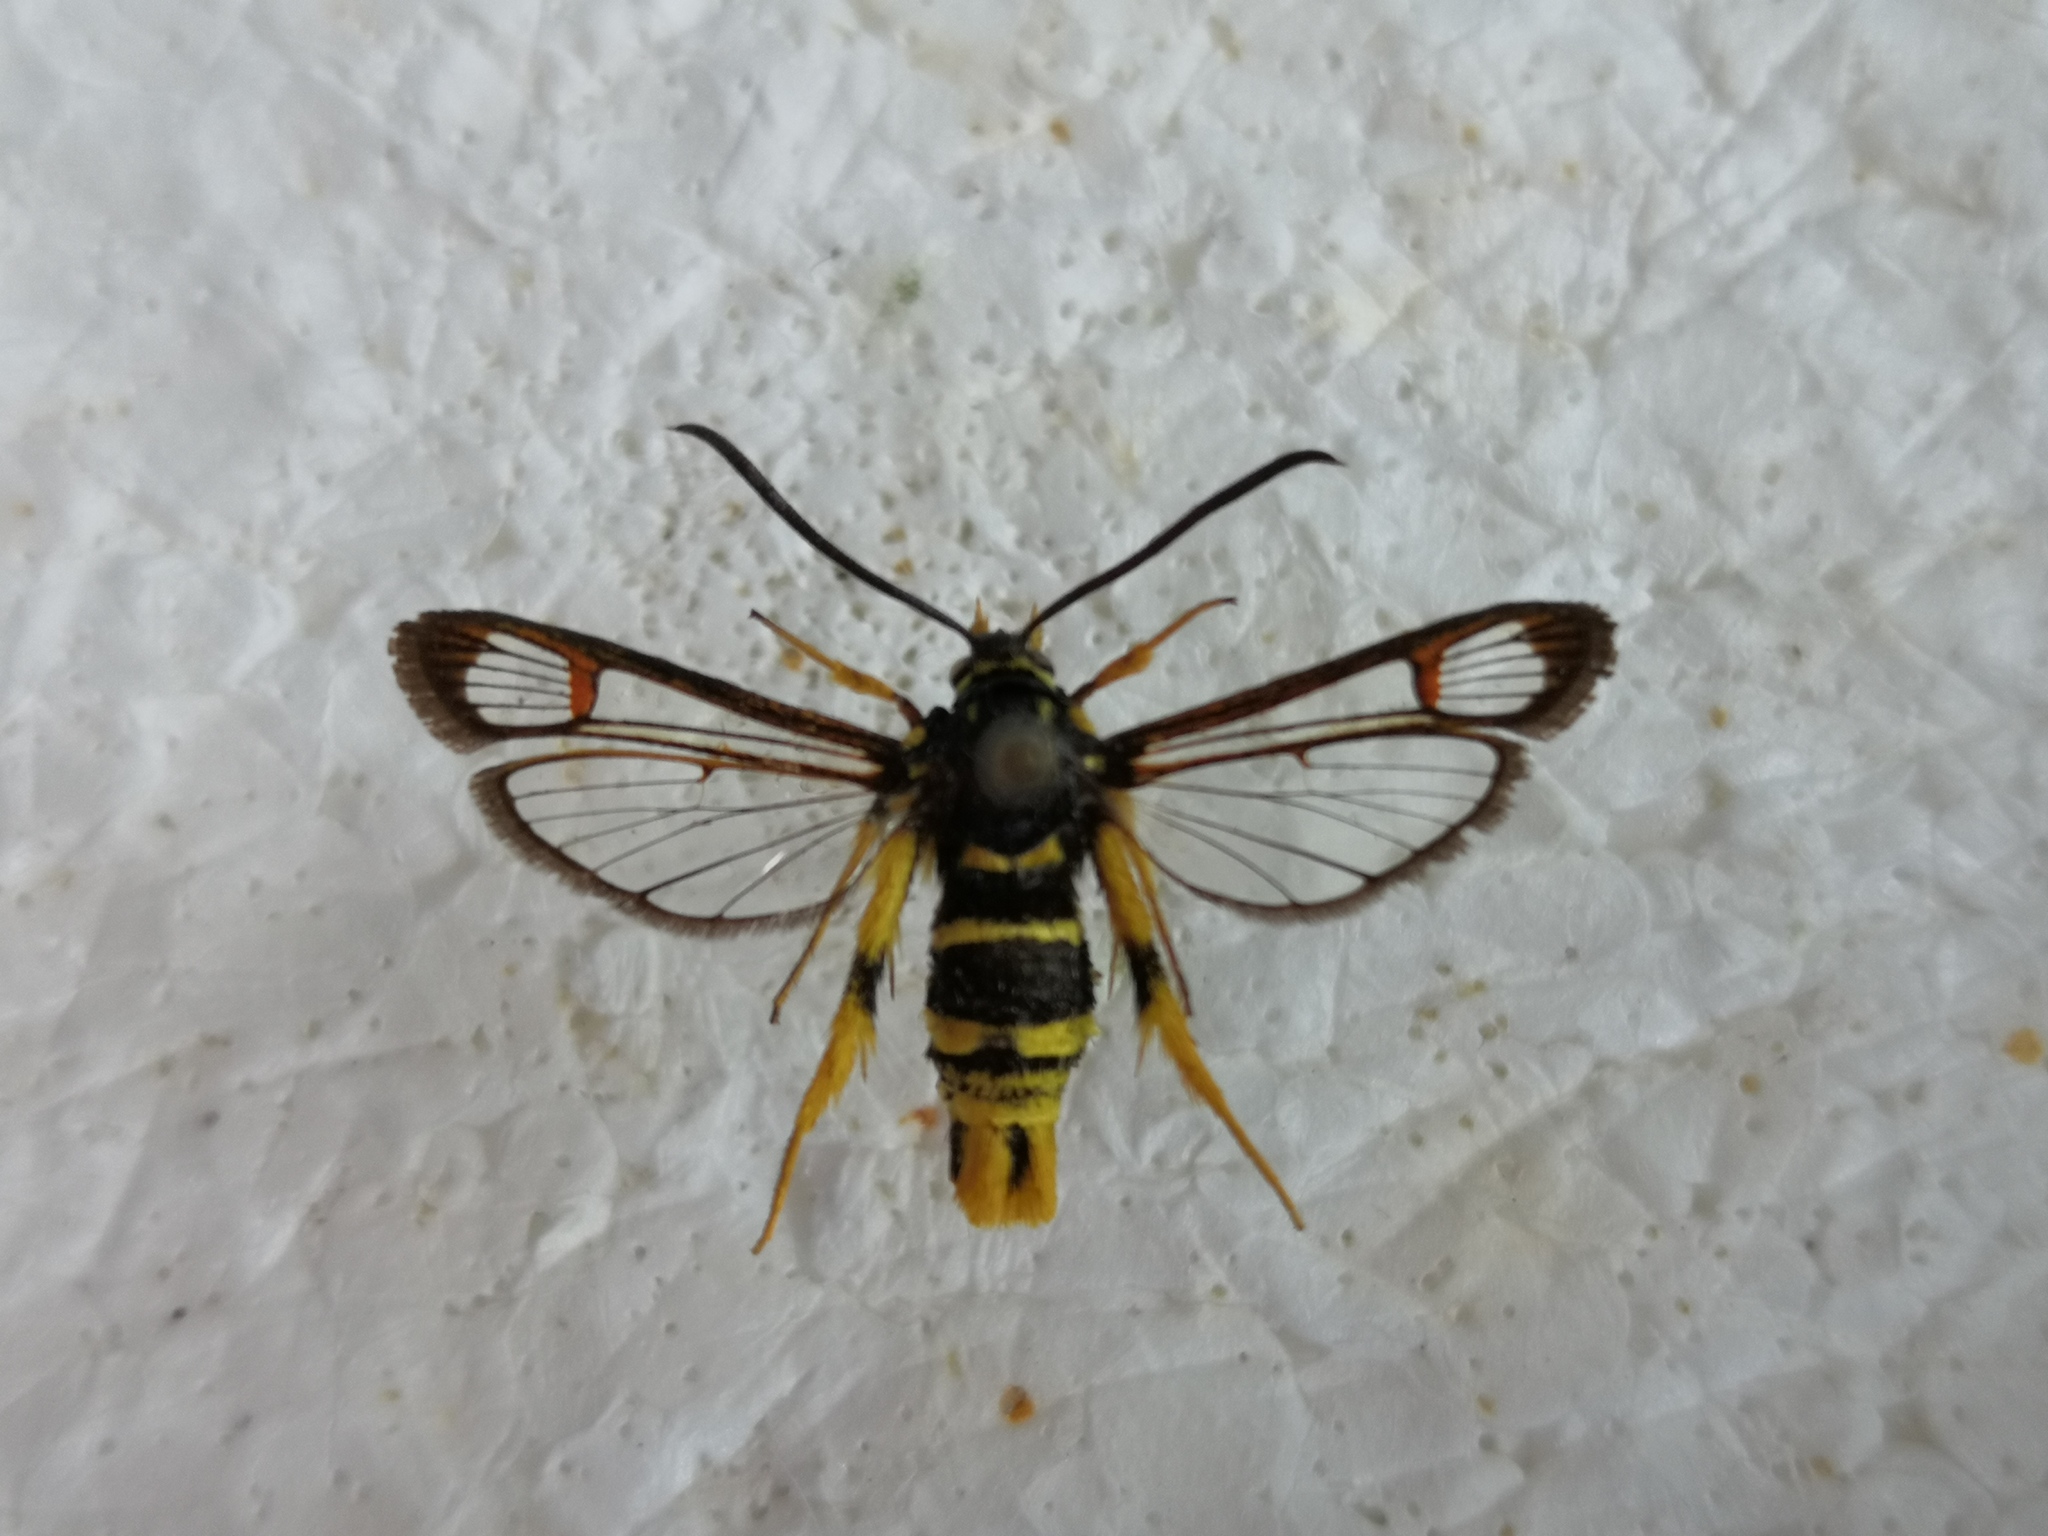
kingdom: Animalia
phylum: Arthropoda
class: Insecta
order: Lepidoptera
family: Sesiidae
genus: Synanthedon
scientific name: Synanthedon vespiformis
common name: Yellow-legged clearwing
